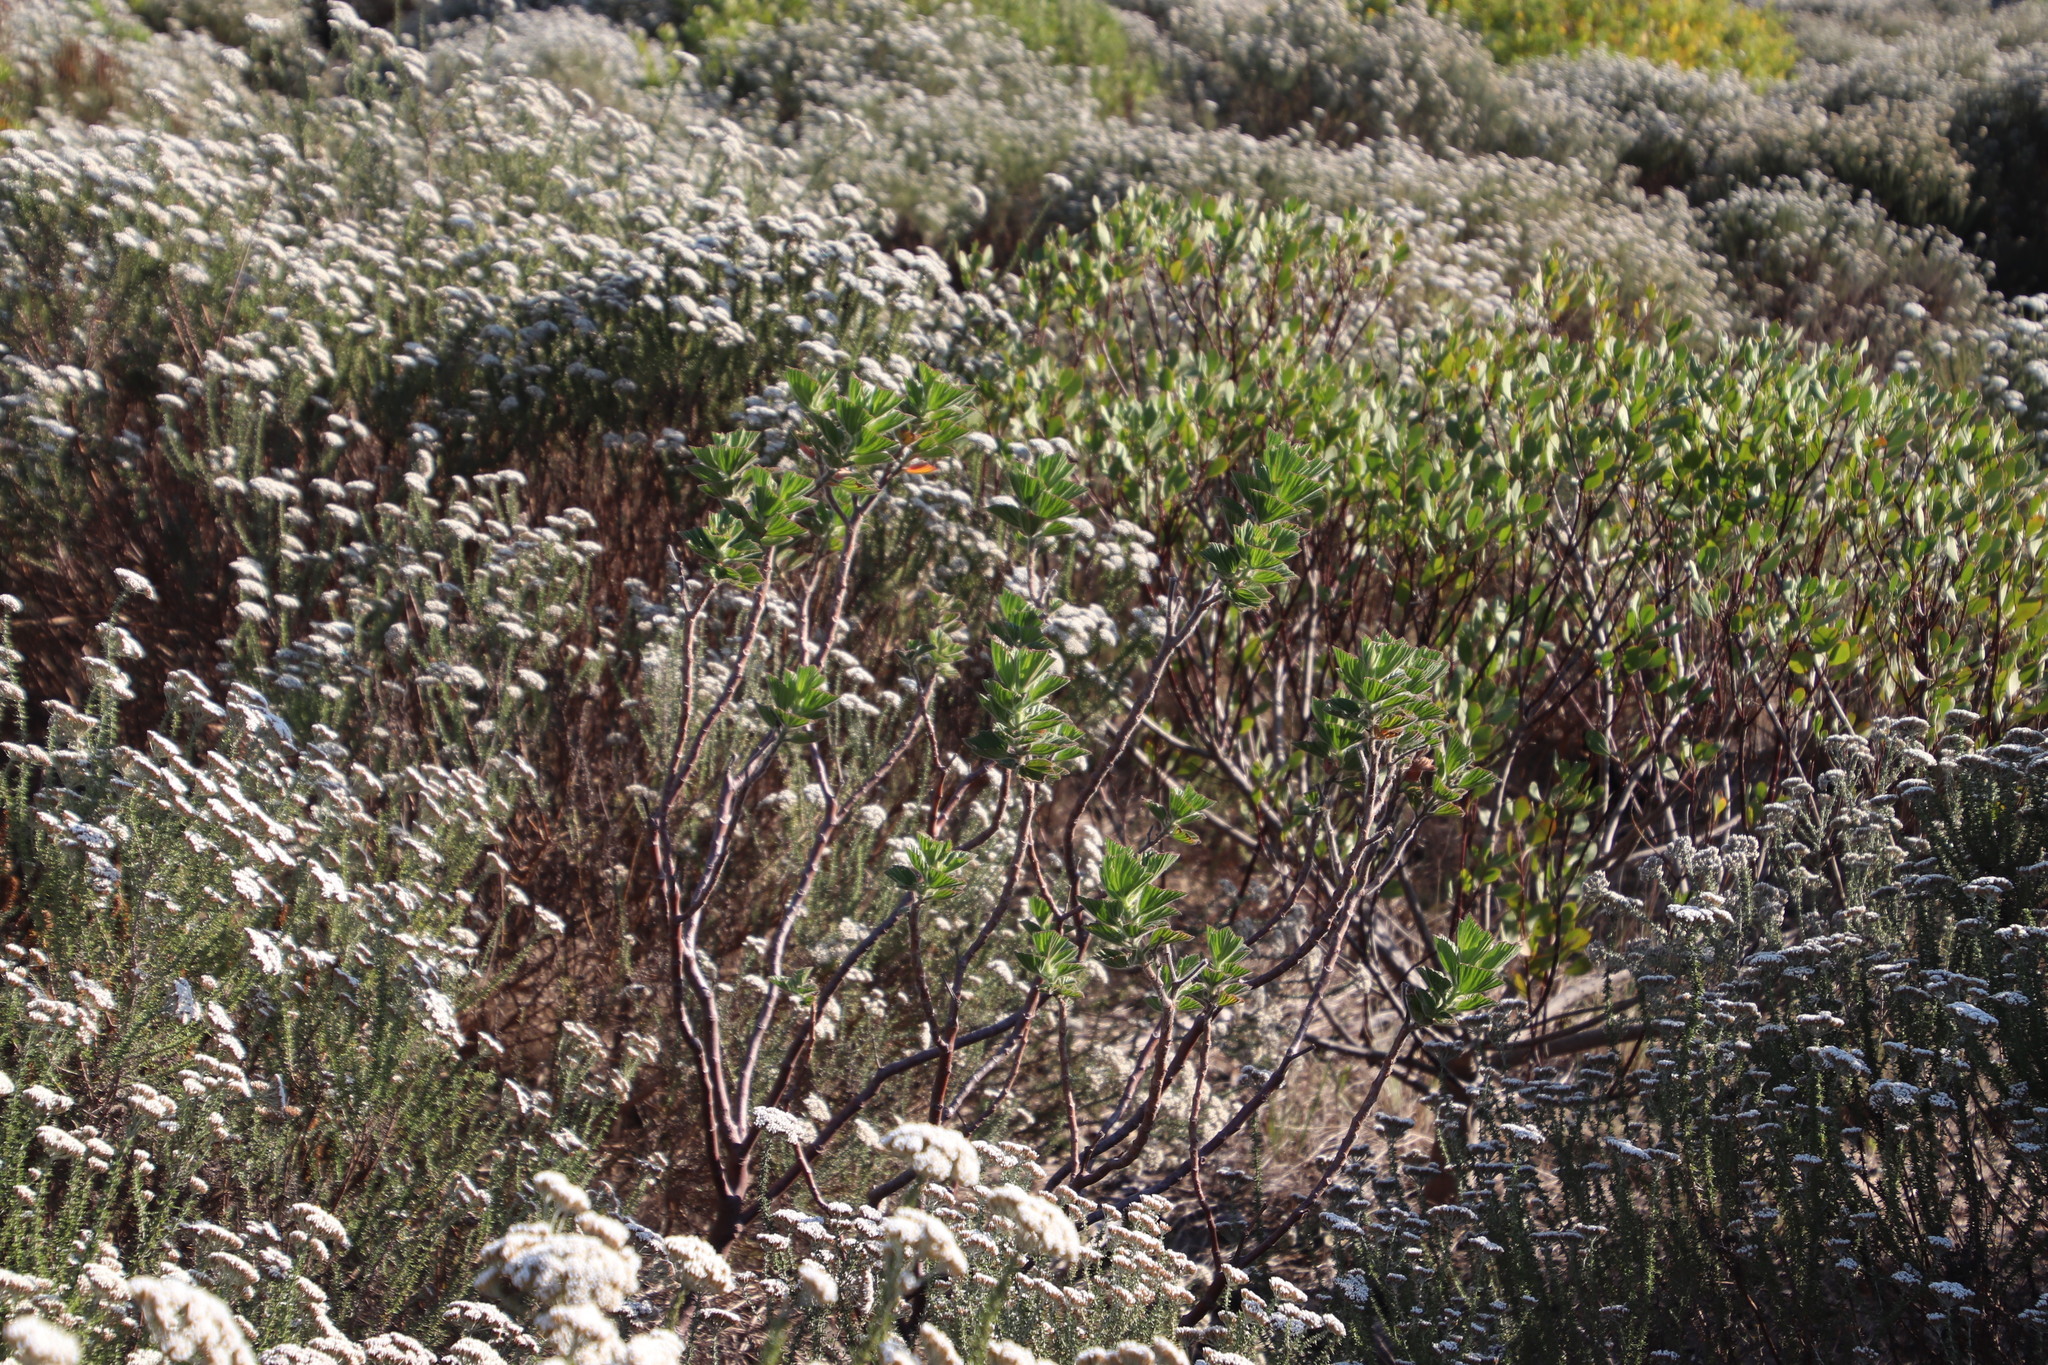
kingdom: Plantae
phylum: Tracheophyta
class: Magnoliopsida
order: Geraniales
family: Geraniaceae
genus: Pelargonium
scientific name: Pelargonium cucullatum
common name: Tree pelargonium
